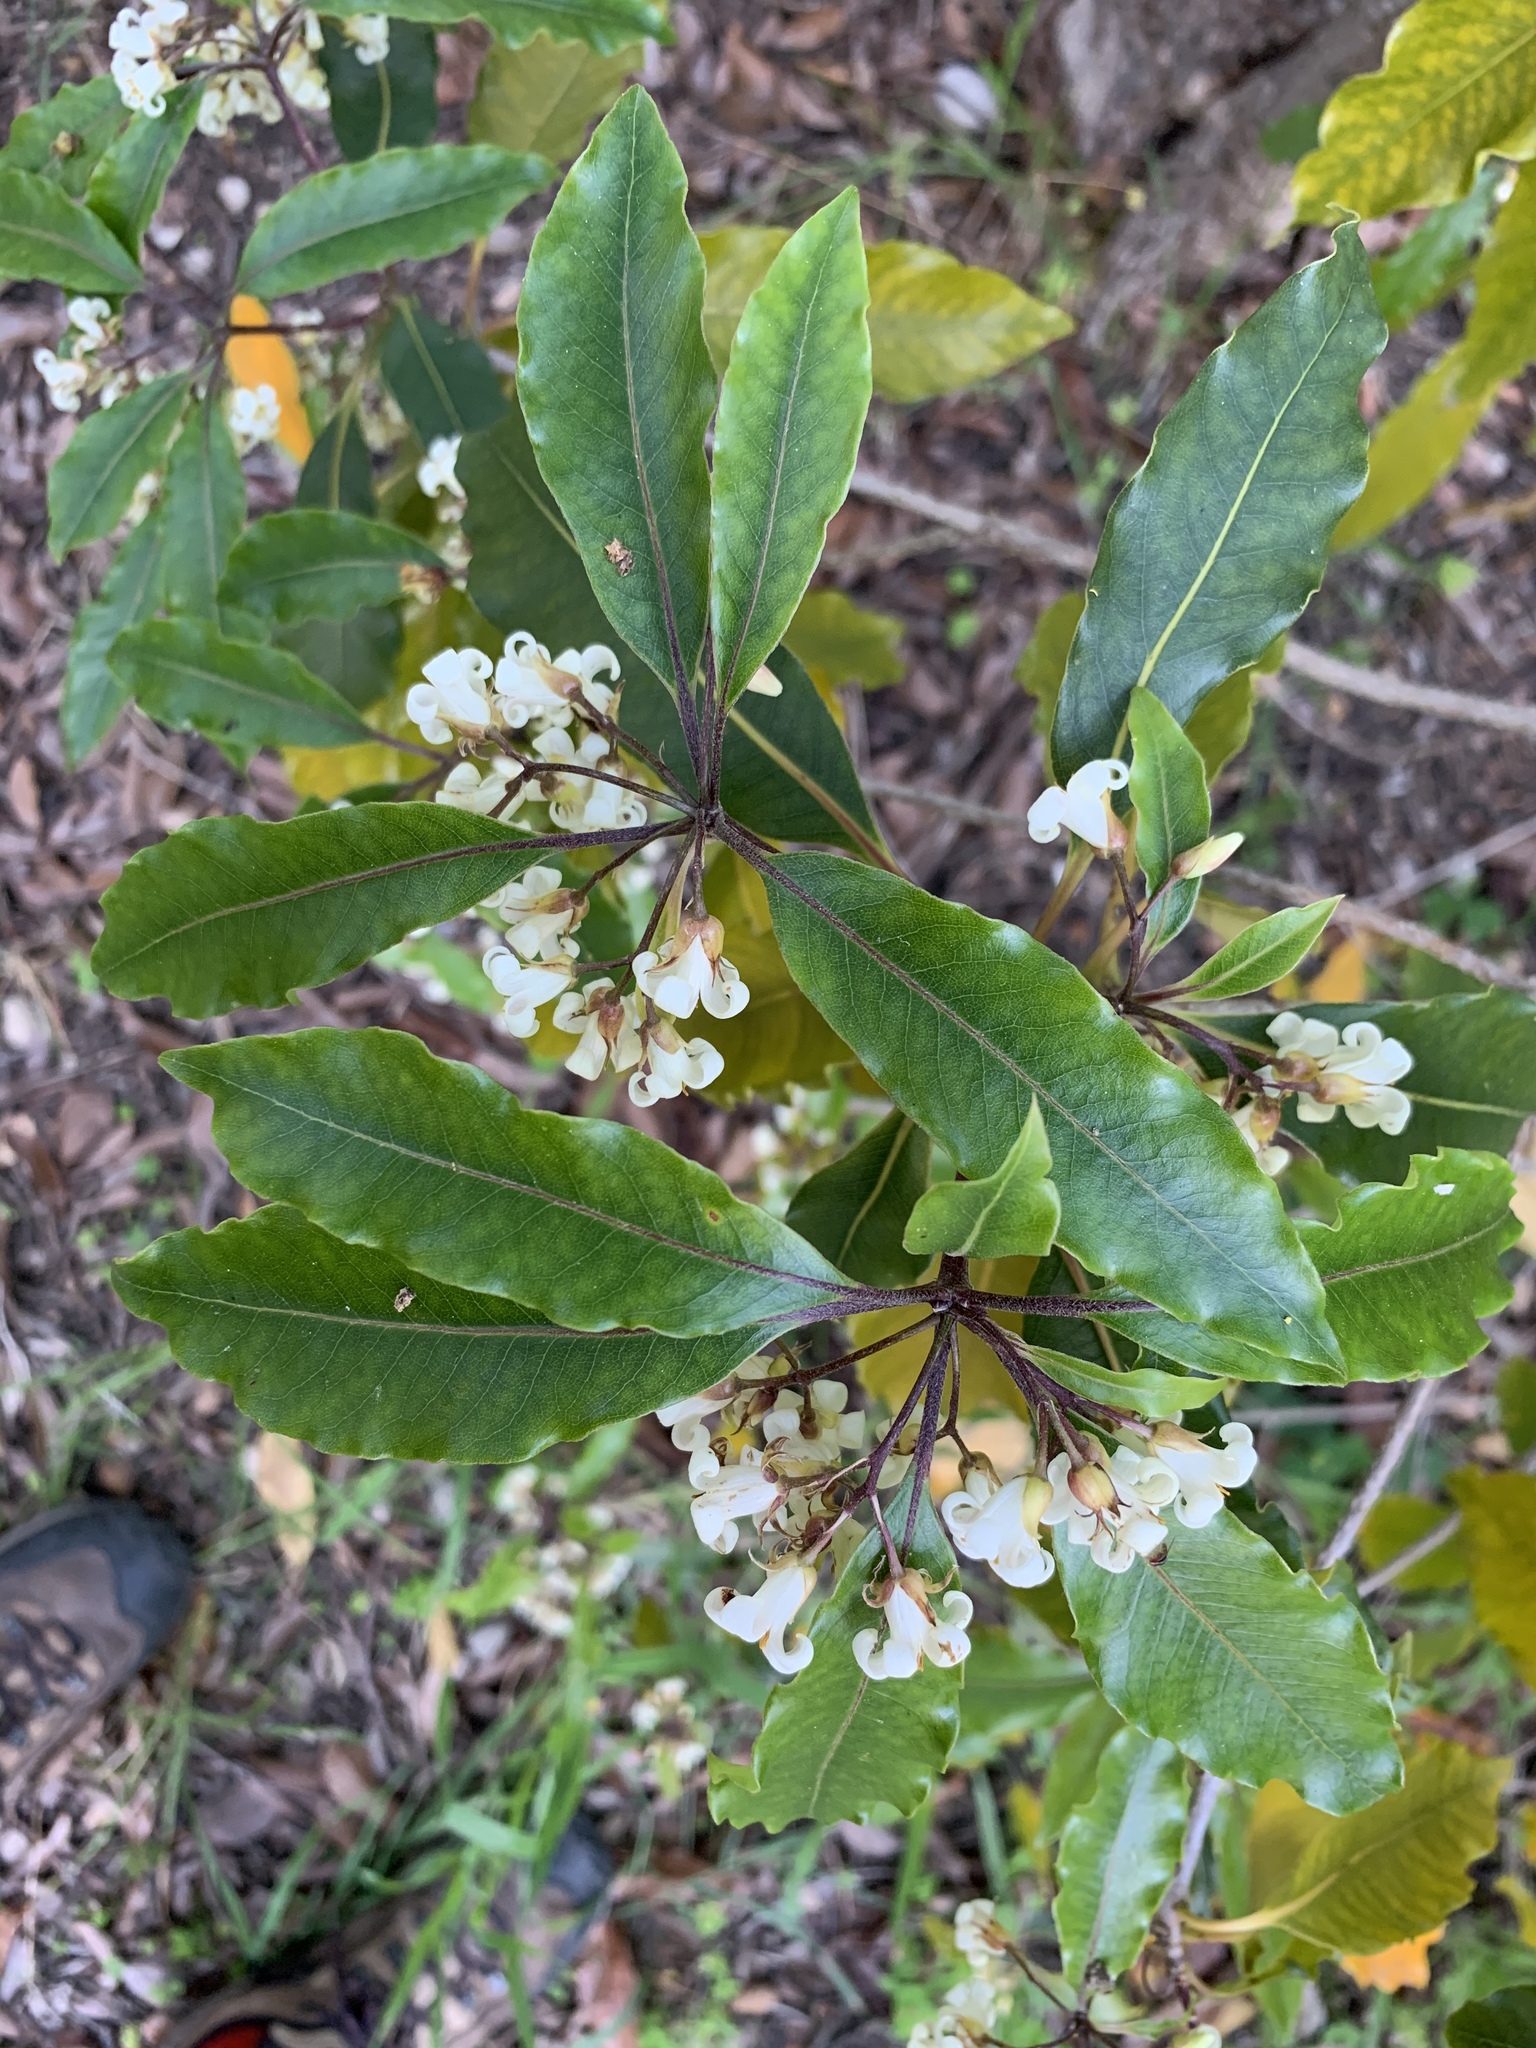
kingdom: Plantae
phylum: Tracheophyta
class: Magnoliopsida
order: Apiales
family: Pittosporaceae
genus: Pittosporum
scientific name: Pittosporum undulatum
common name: Australian cheesewood
